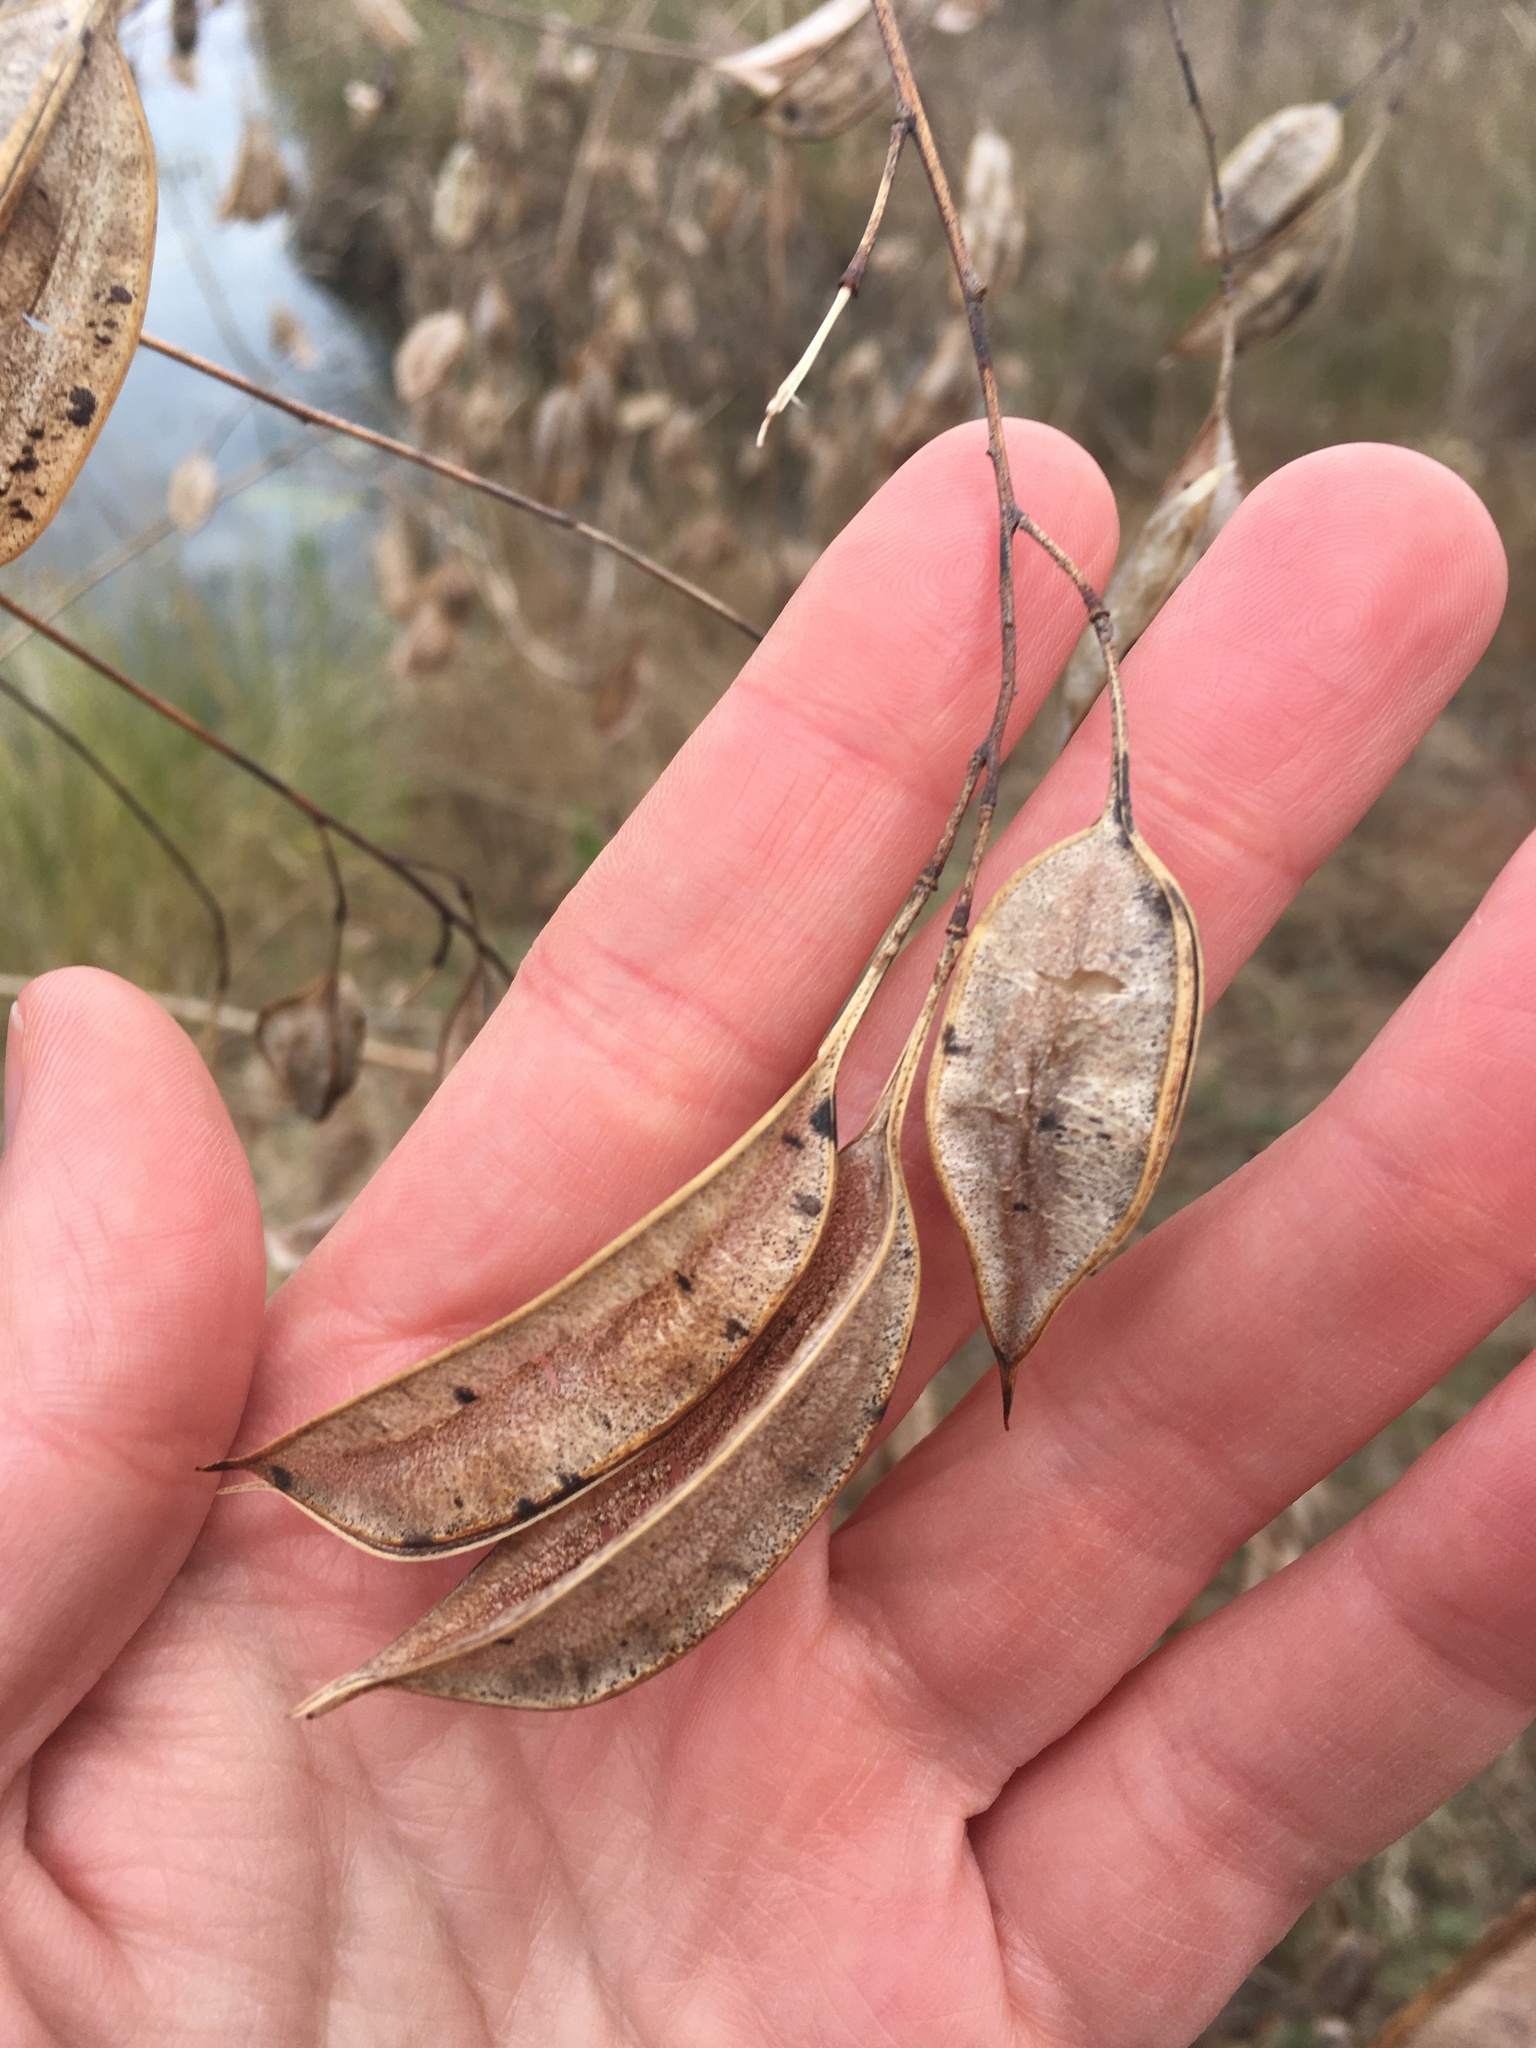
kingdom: Plantae
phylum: Tracheophyta
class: Magnoliopsida
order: Fabales
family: Fabaceae
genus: Sesbania
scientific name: Sesbania vesicaria
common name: Bagpod
